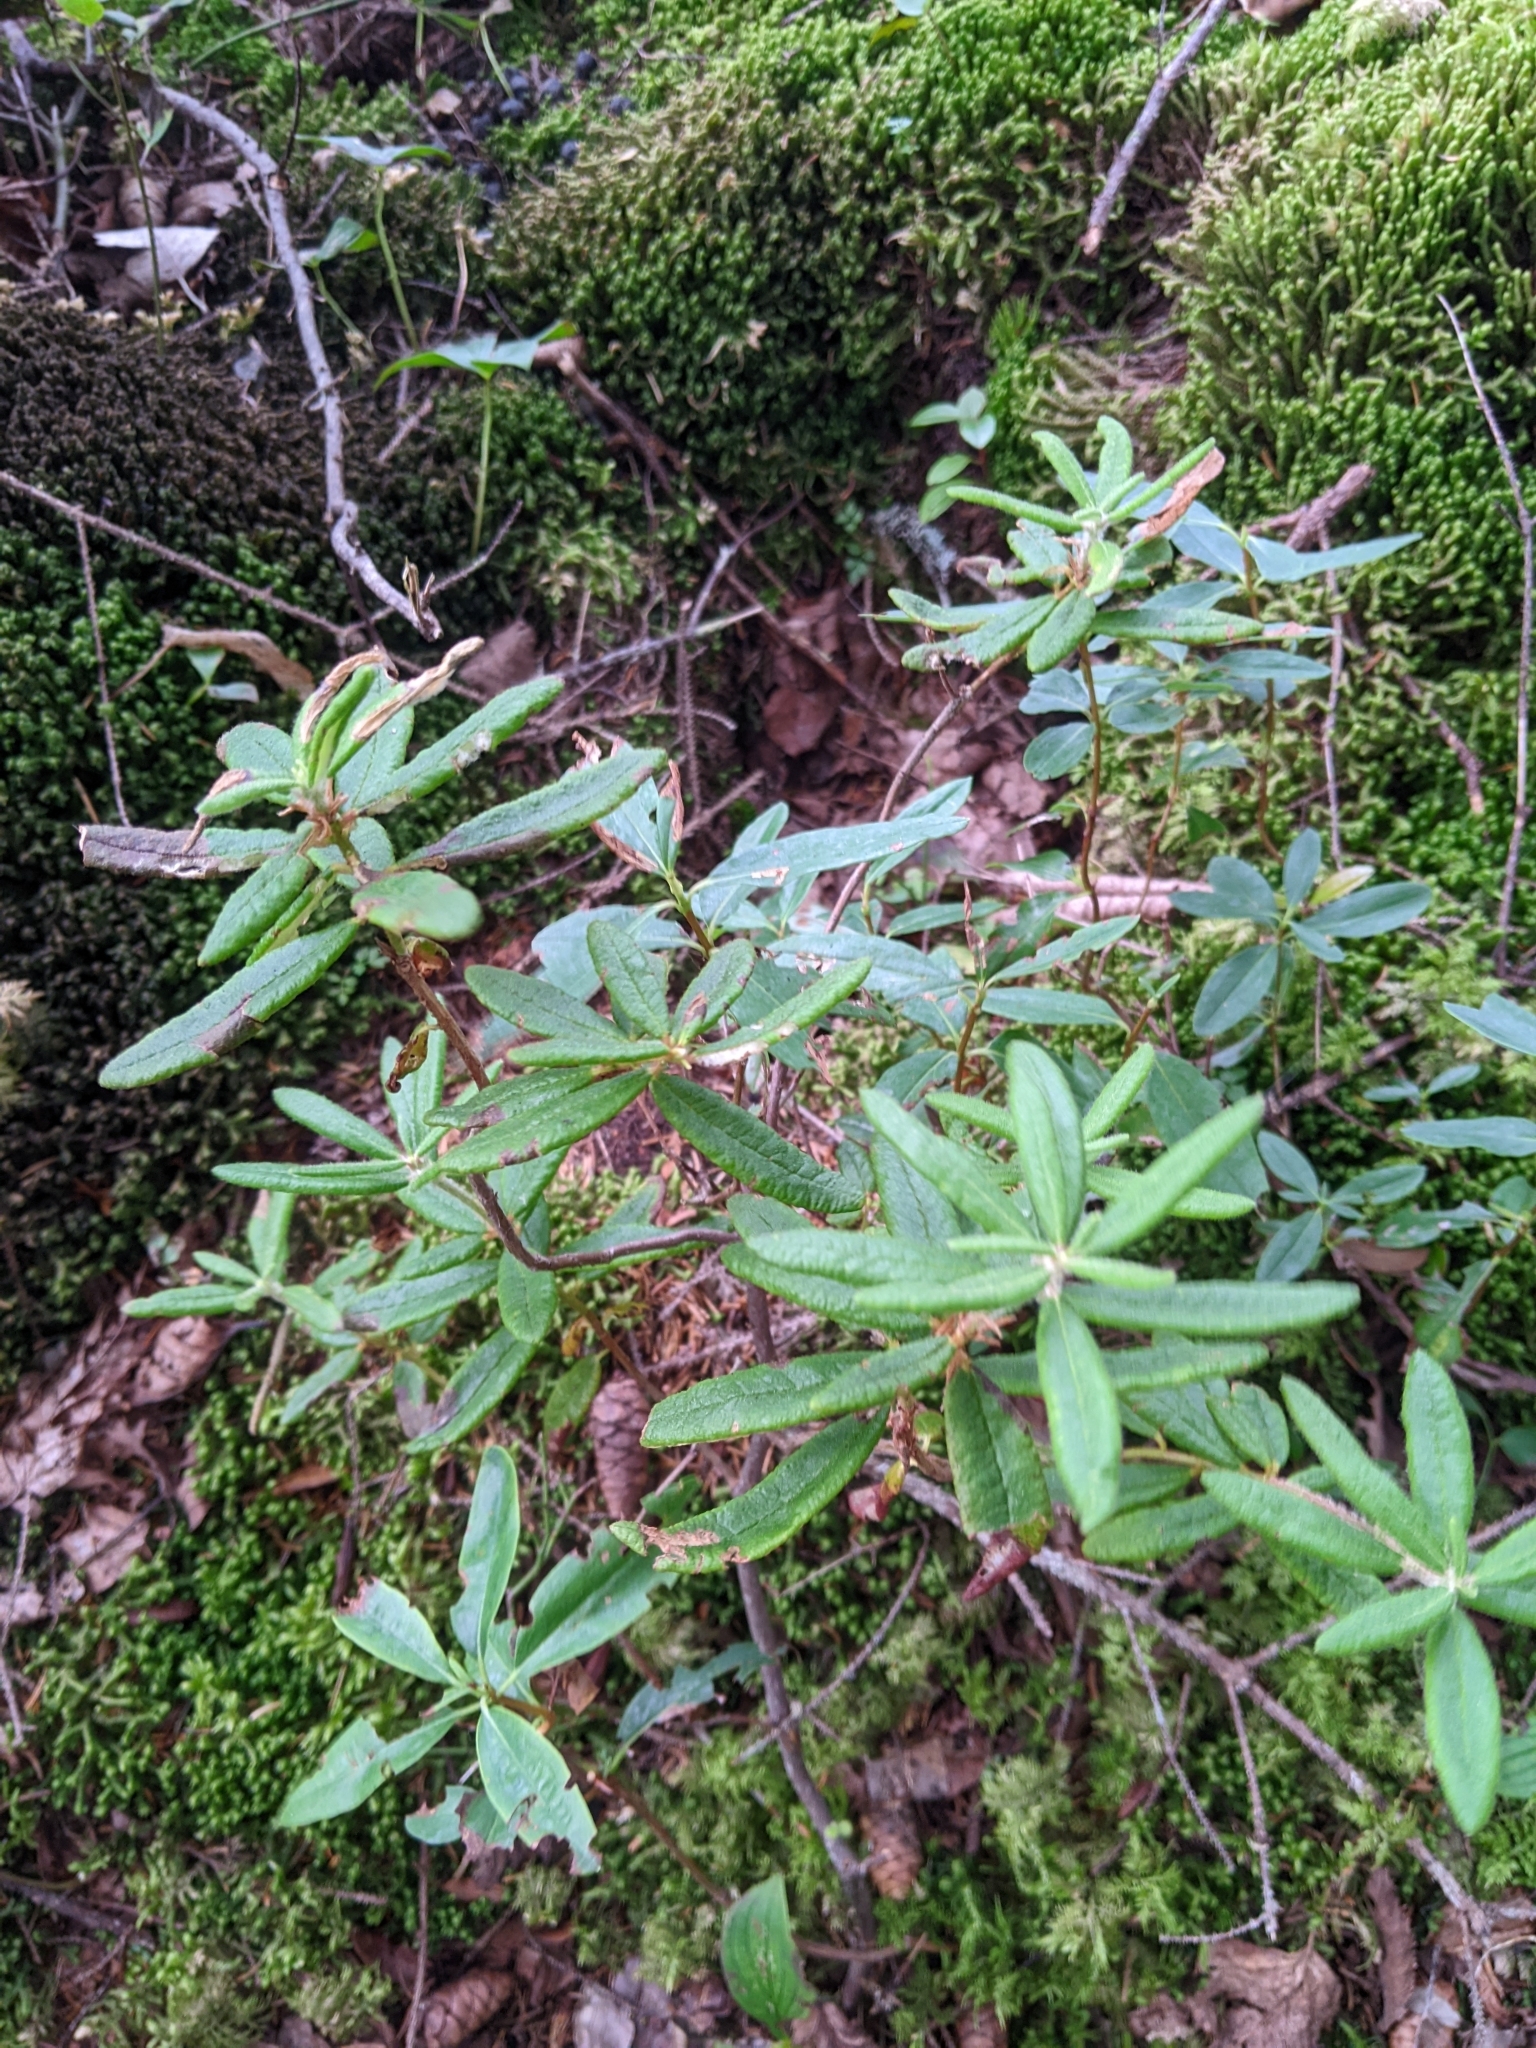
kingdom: Plantae
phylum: Tracheophyta
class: Magnoliopsida
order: Ericales
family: Ericaceae
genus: Rhododendron
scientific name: Rhododendron groenlandicum
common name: Bog labrador tea
